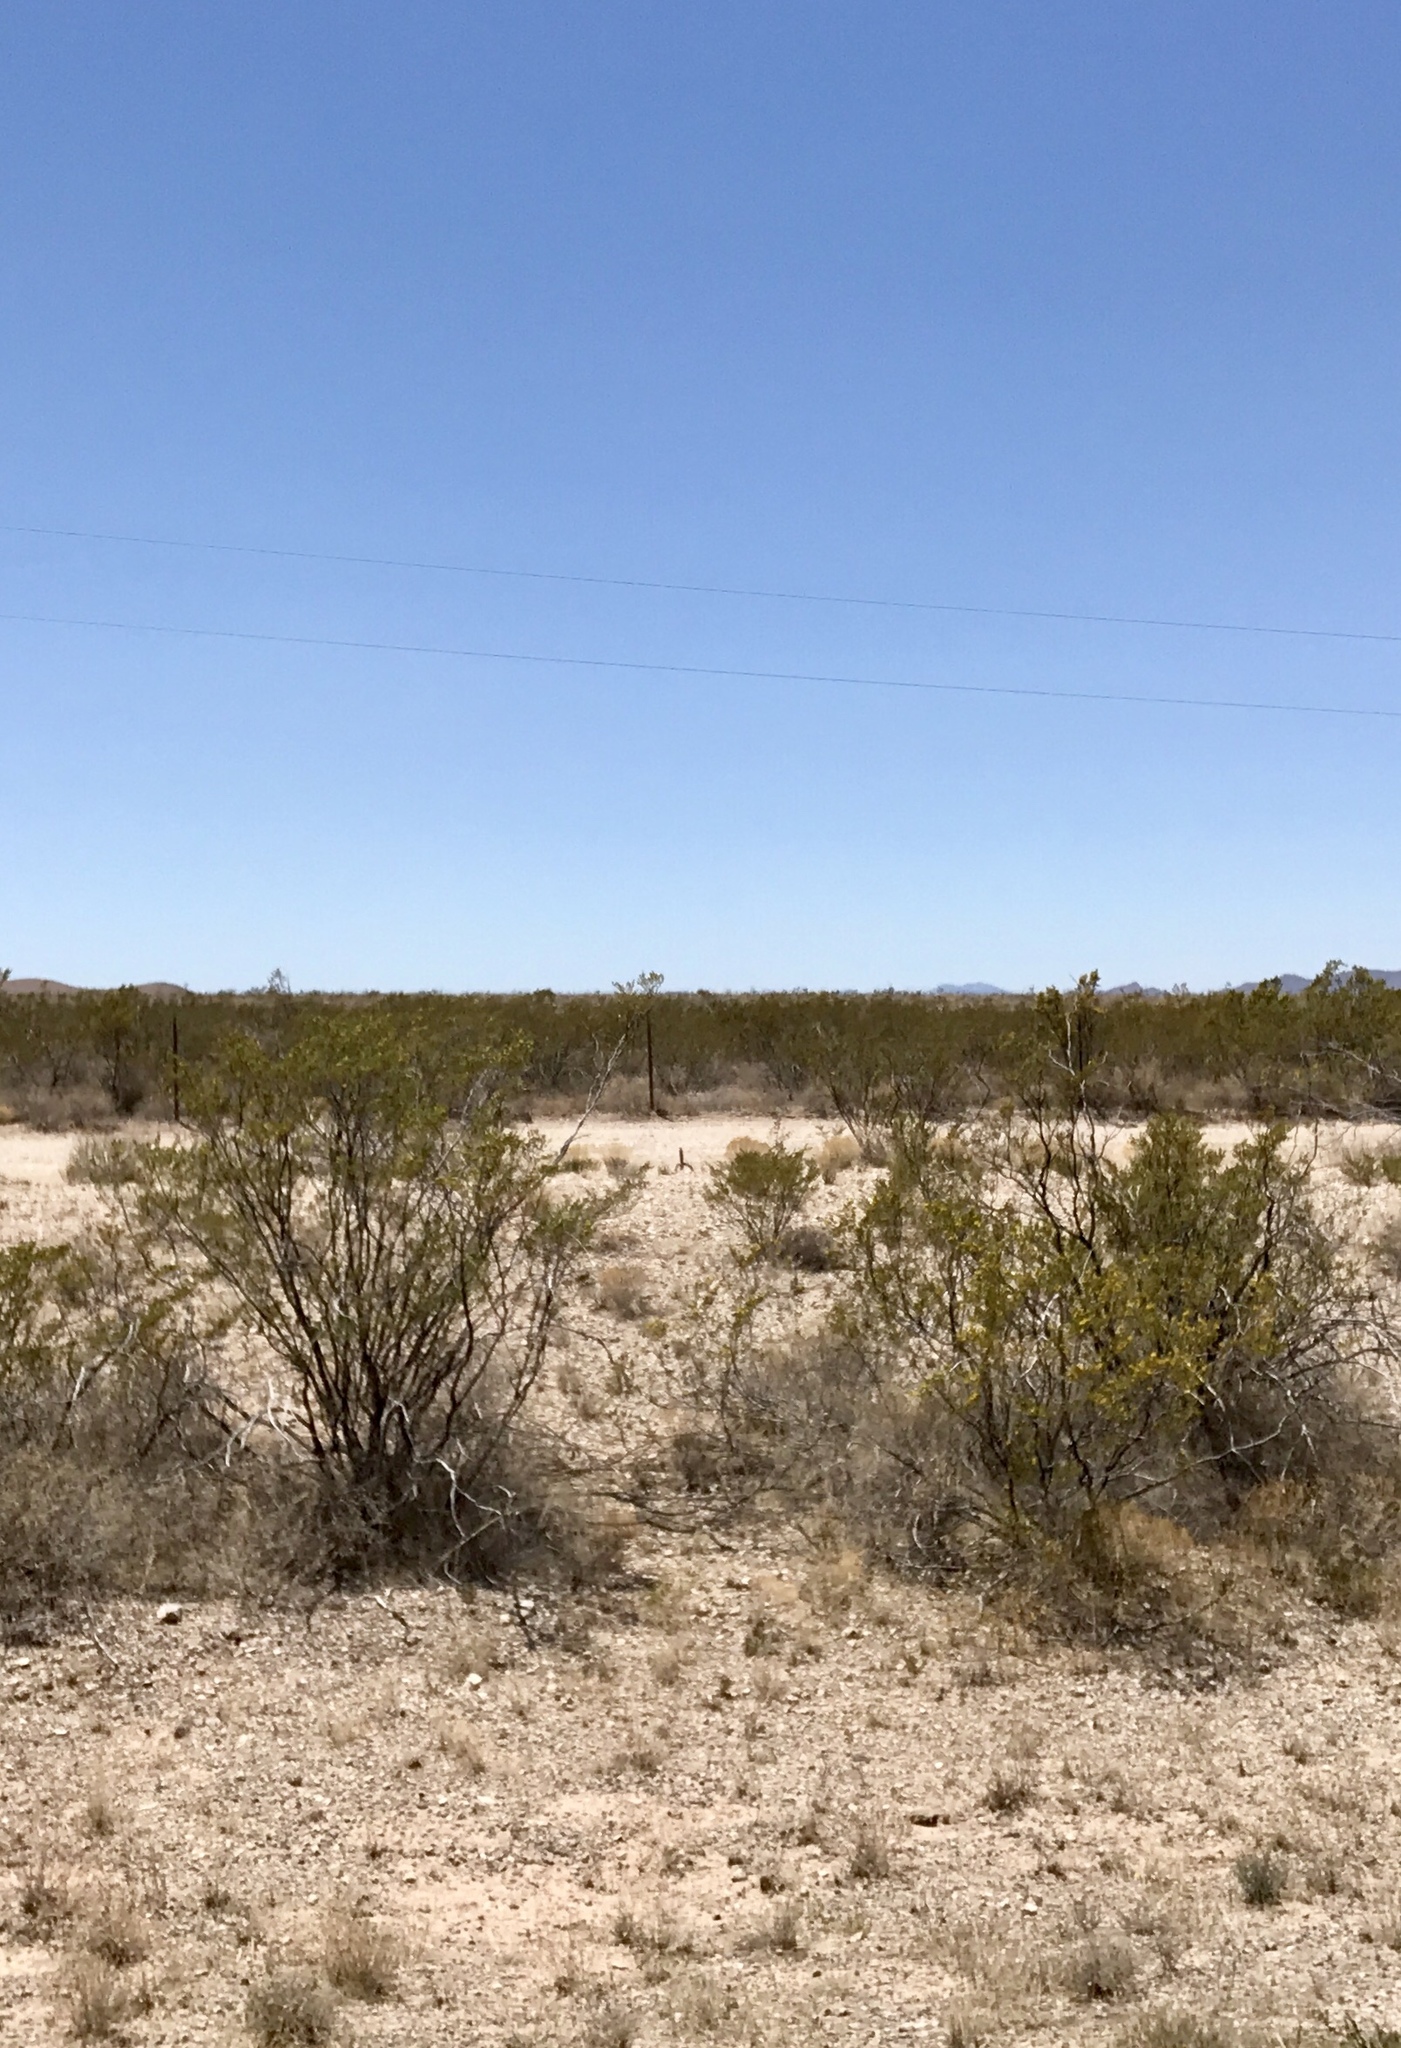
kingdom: Plantae
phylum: Tracheophyta
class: Magnoliopsida
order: Zygophyllales
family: Zygophyllaceae
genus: Larrea
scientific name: Larrea tridentata
